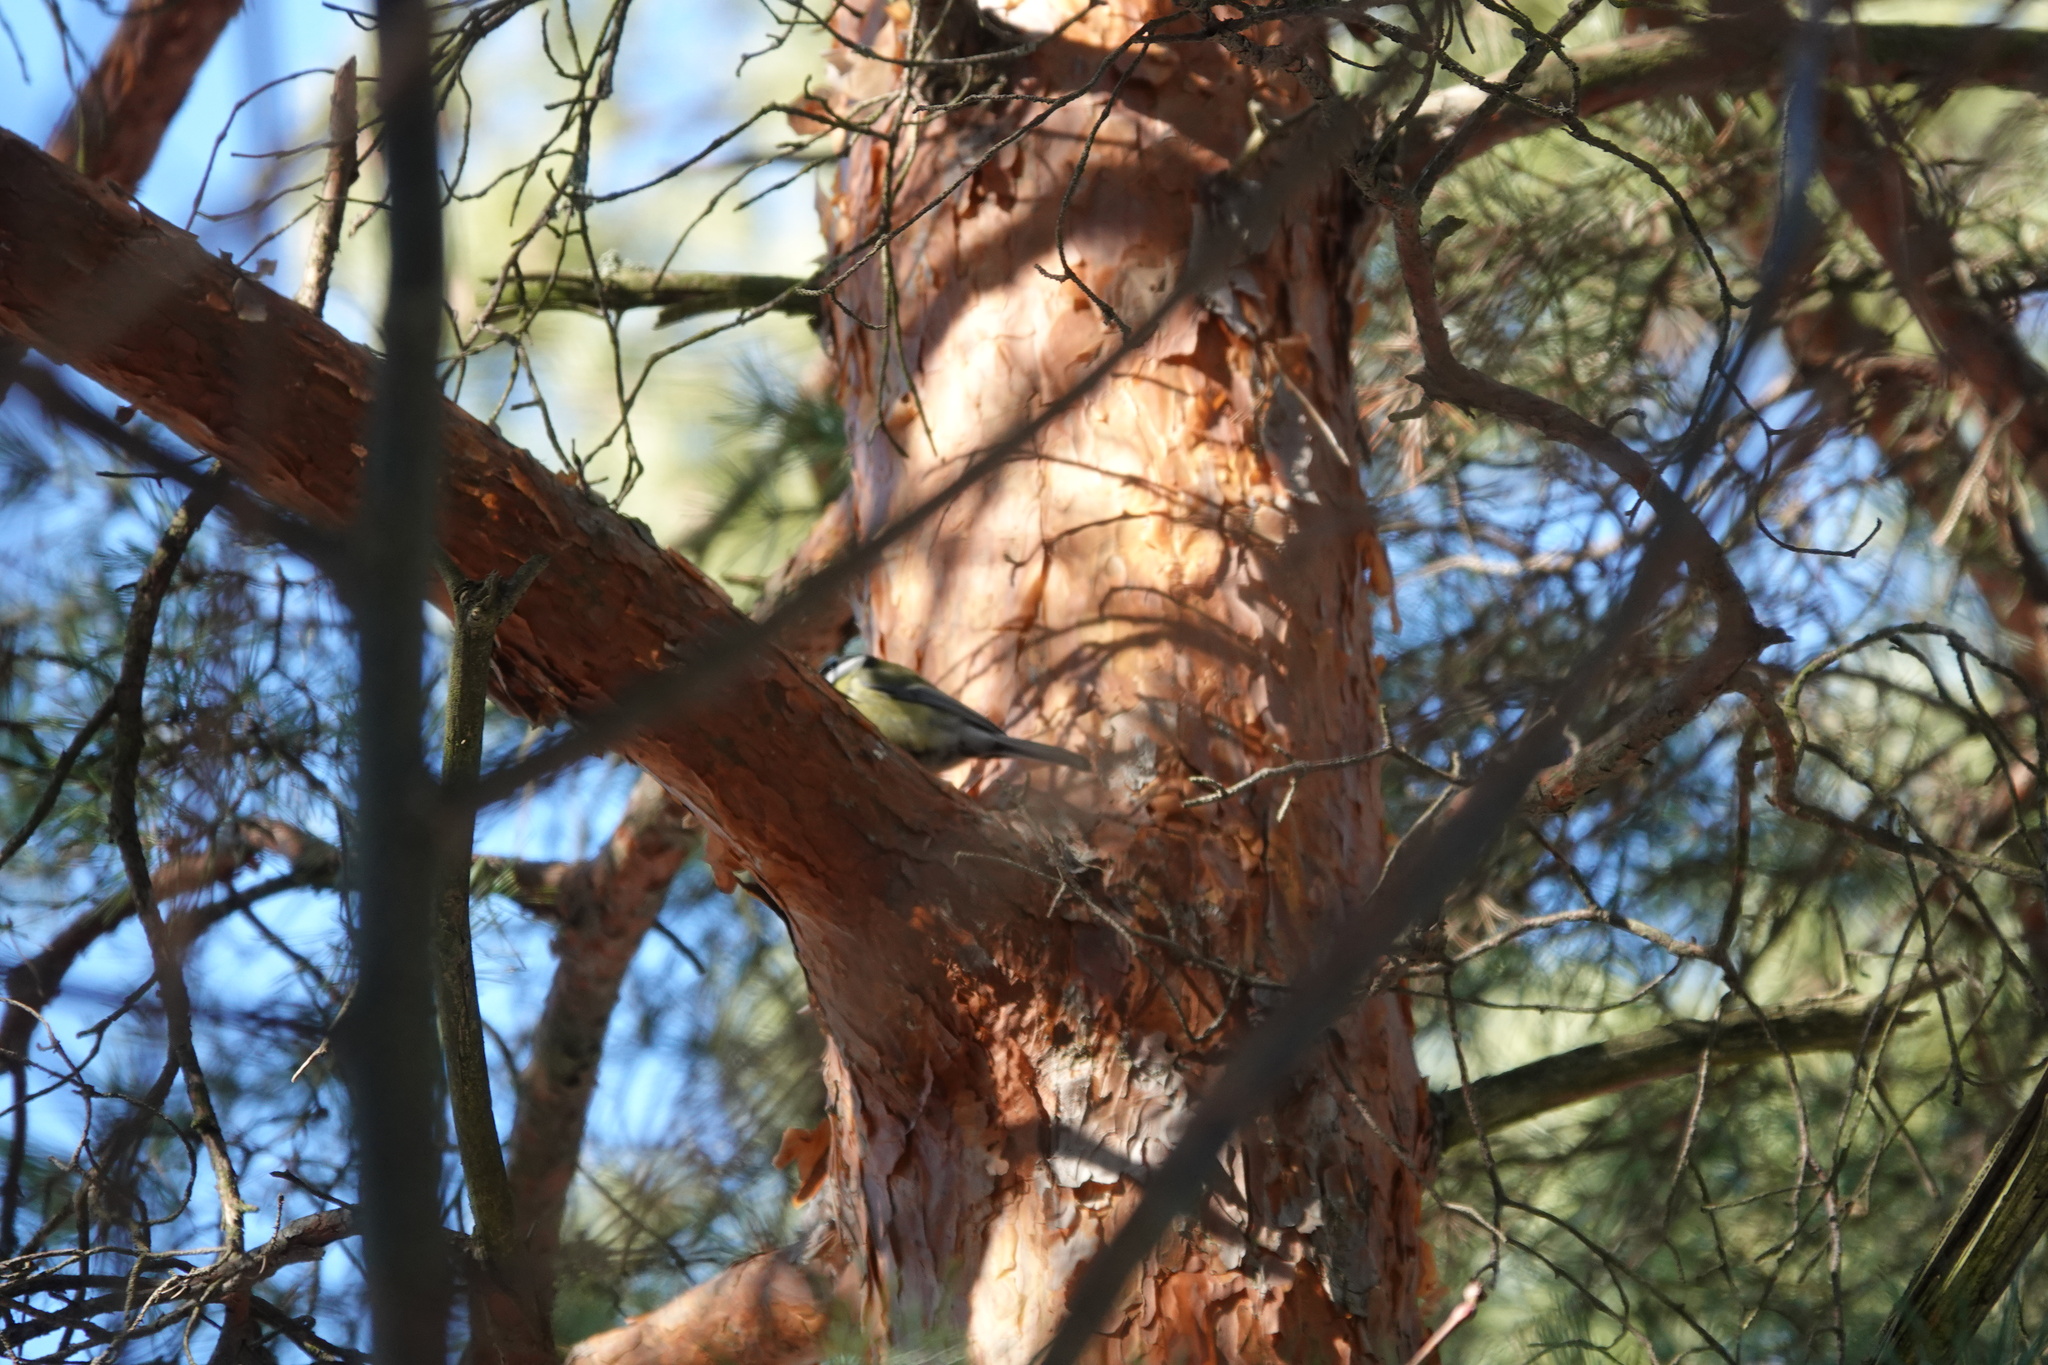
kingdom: Animalia
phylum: Chordata
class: Aves
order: Passeriformes
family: Paridae
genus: Parus
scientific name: Parus major
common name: Great tit
